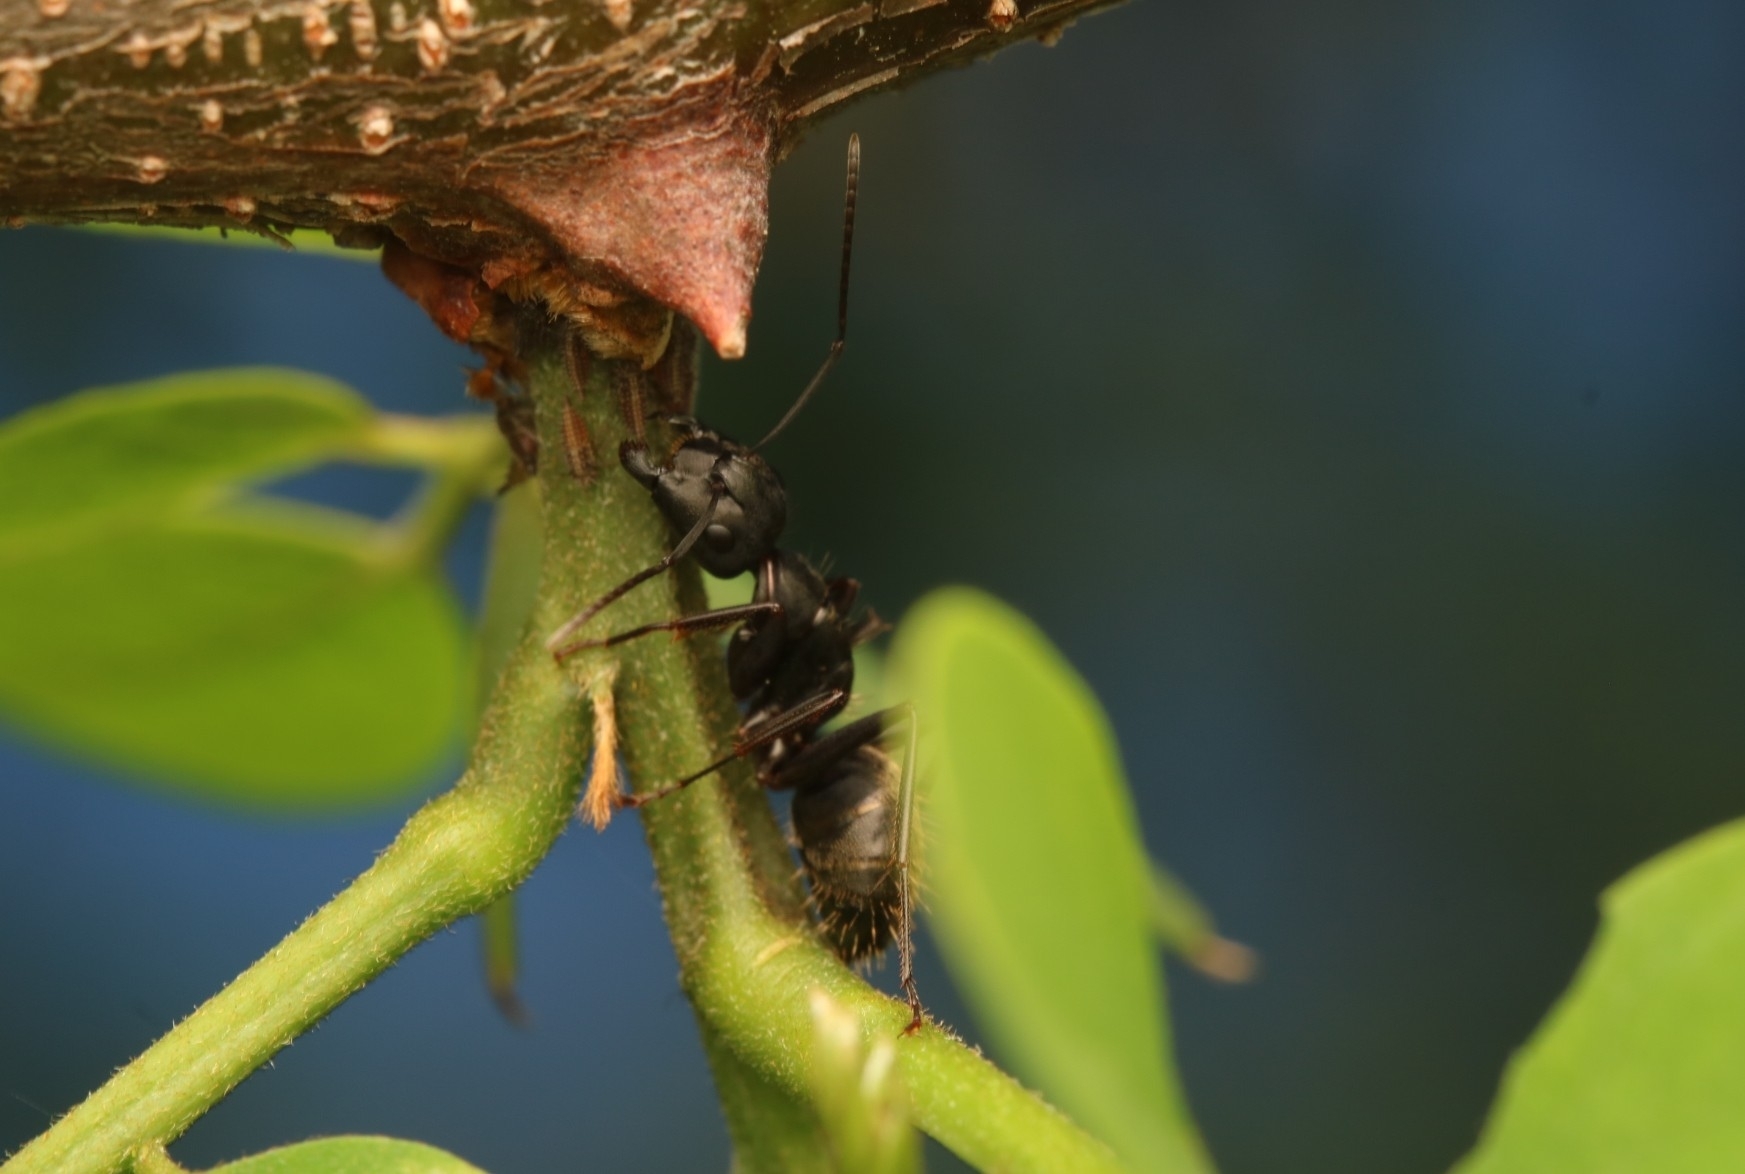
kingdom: Animalia
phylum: Arthropoda
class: Insecta
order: Hymenoptera
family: Formicidae
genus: Camponotus
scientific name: Camponotus pennsylvanicus
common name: Black carpenter ant
